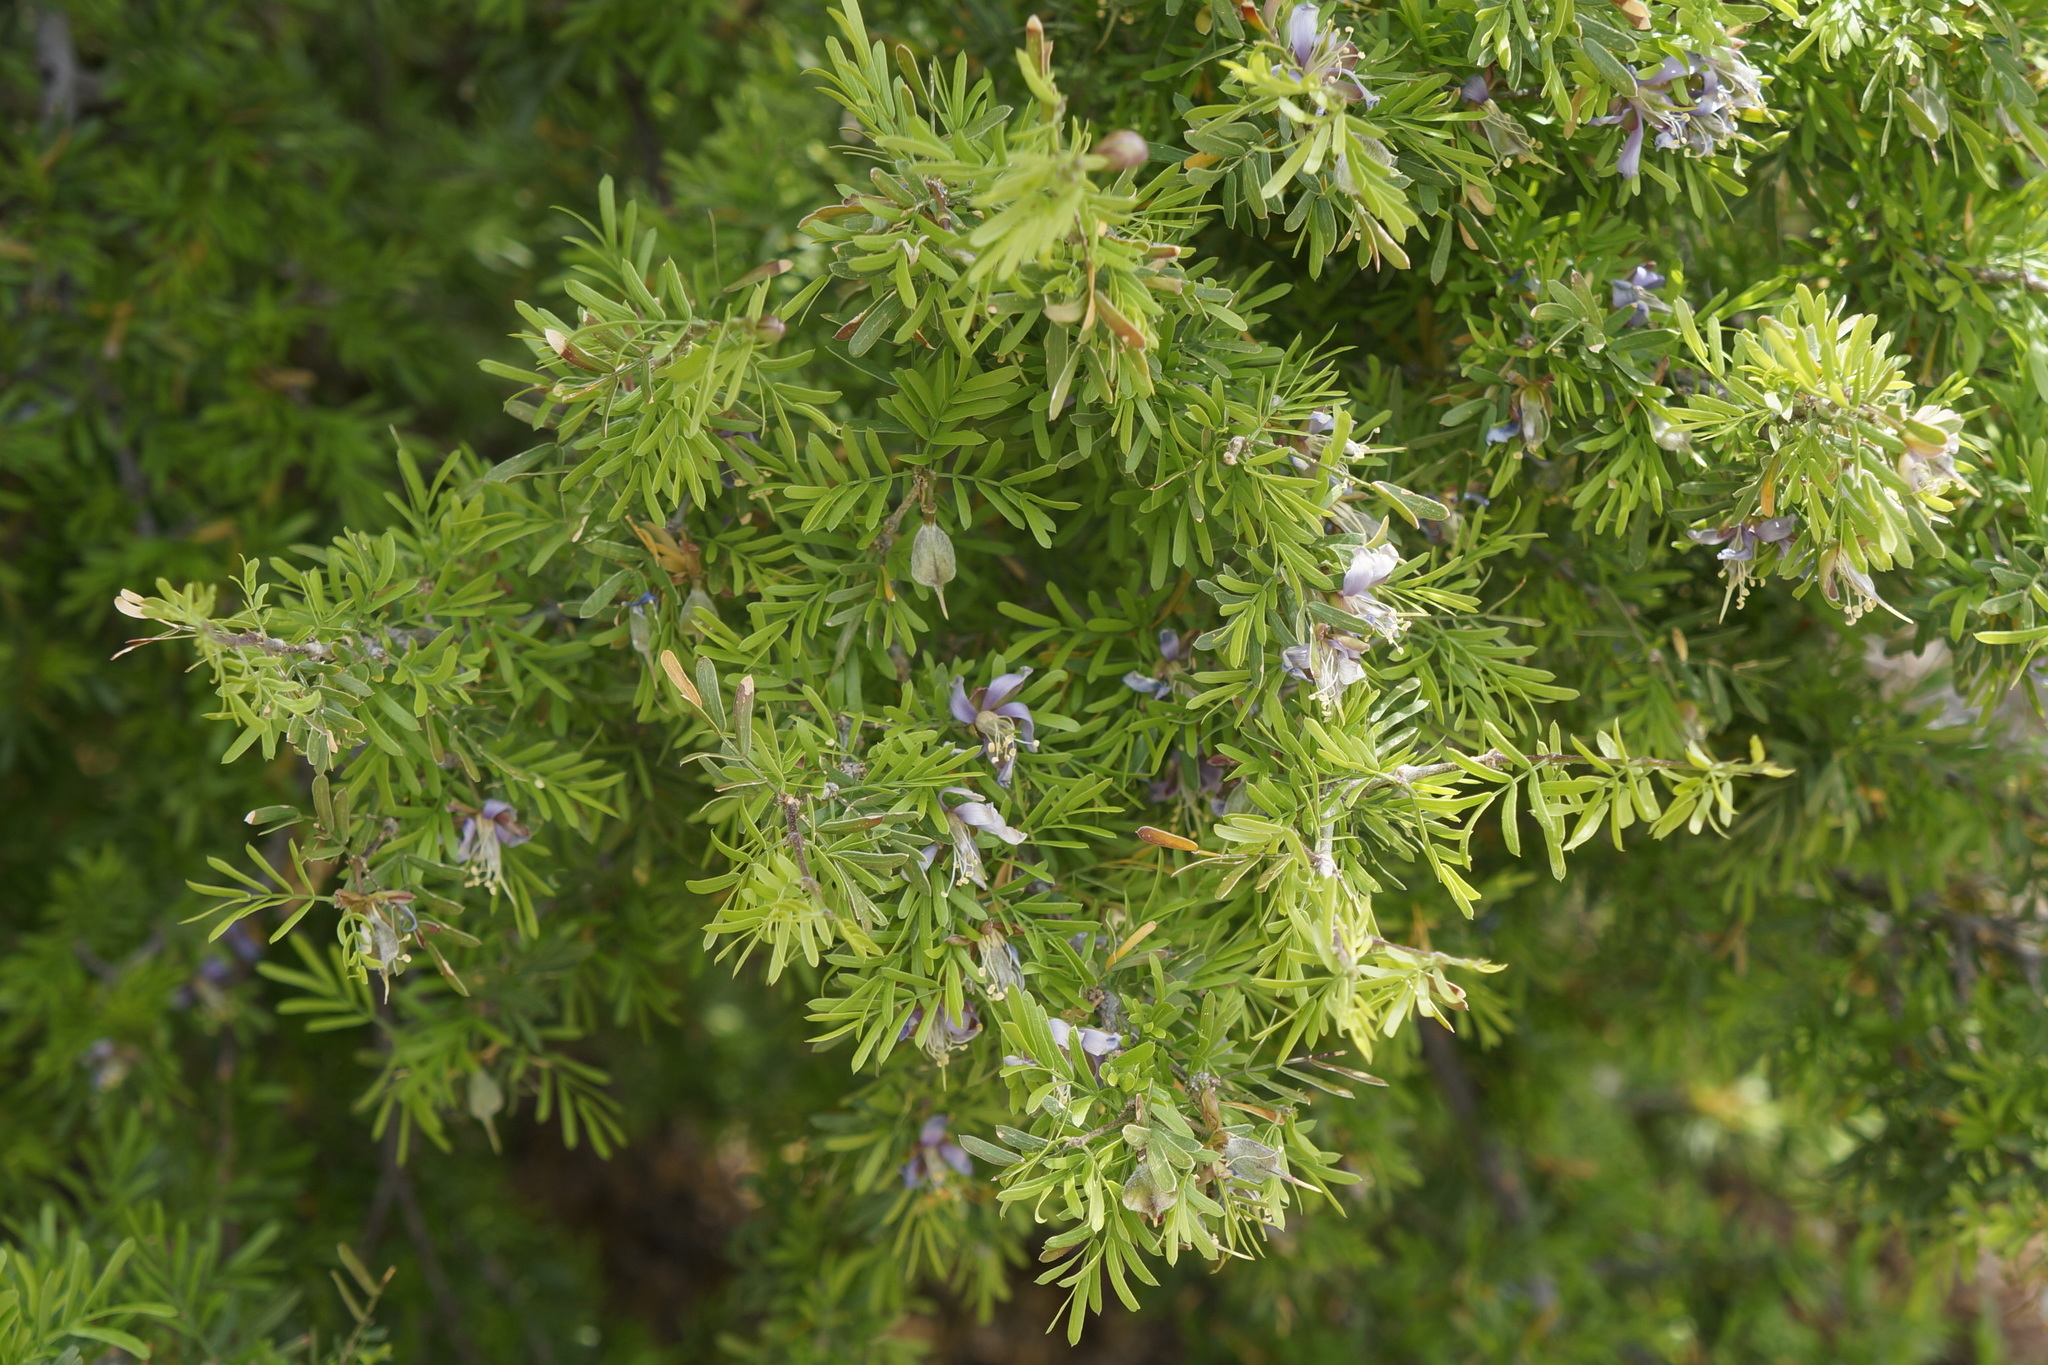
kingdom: Plantae
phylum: Tracheophyta
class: Magnoliopsida
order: Zygophyllales
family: Zygophyllaceae
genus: Porlieria
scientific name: Porlieria angustifolia
